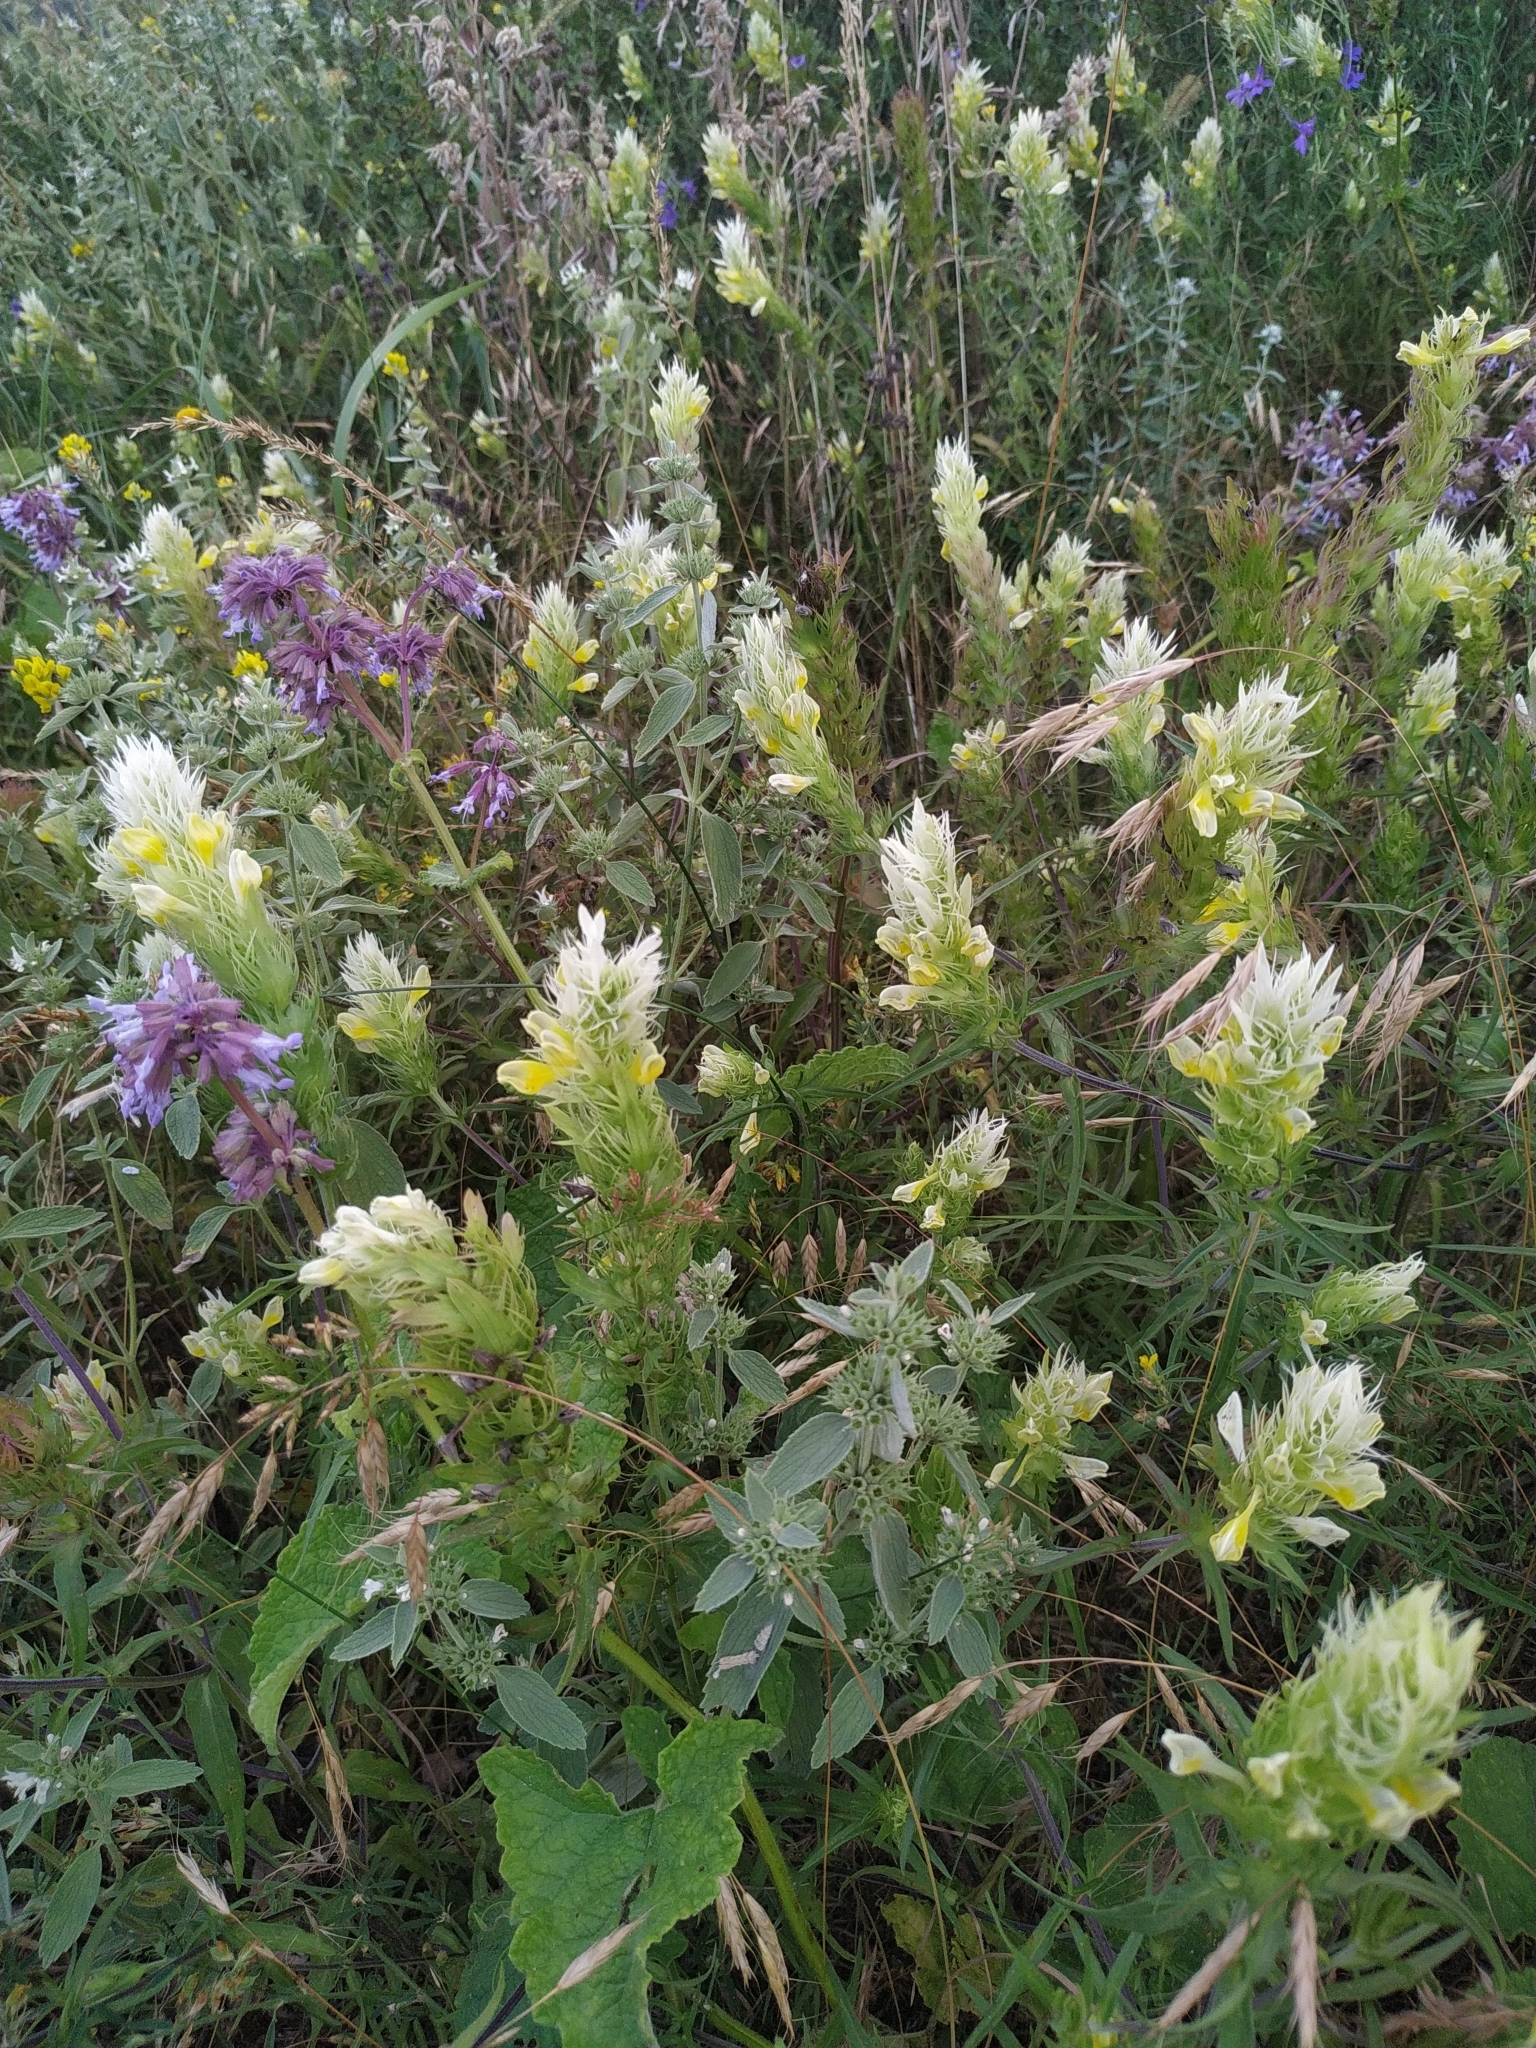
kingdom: Plantae
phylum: Tracheophyta
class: Magnoliopsida
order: Lamiales
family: Orobanchaceae
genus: Melampyrum
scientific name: Melampyrum arvense
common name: Field cow-wheat
